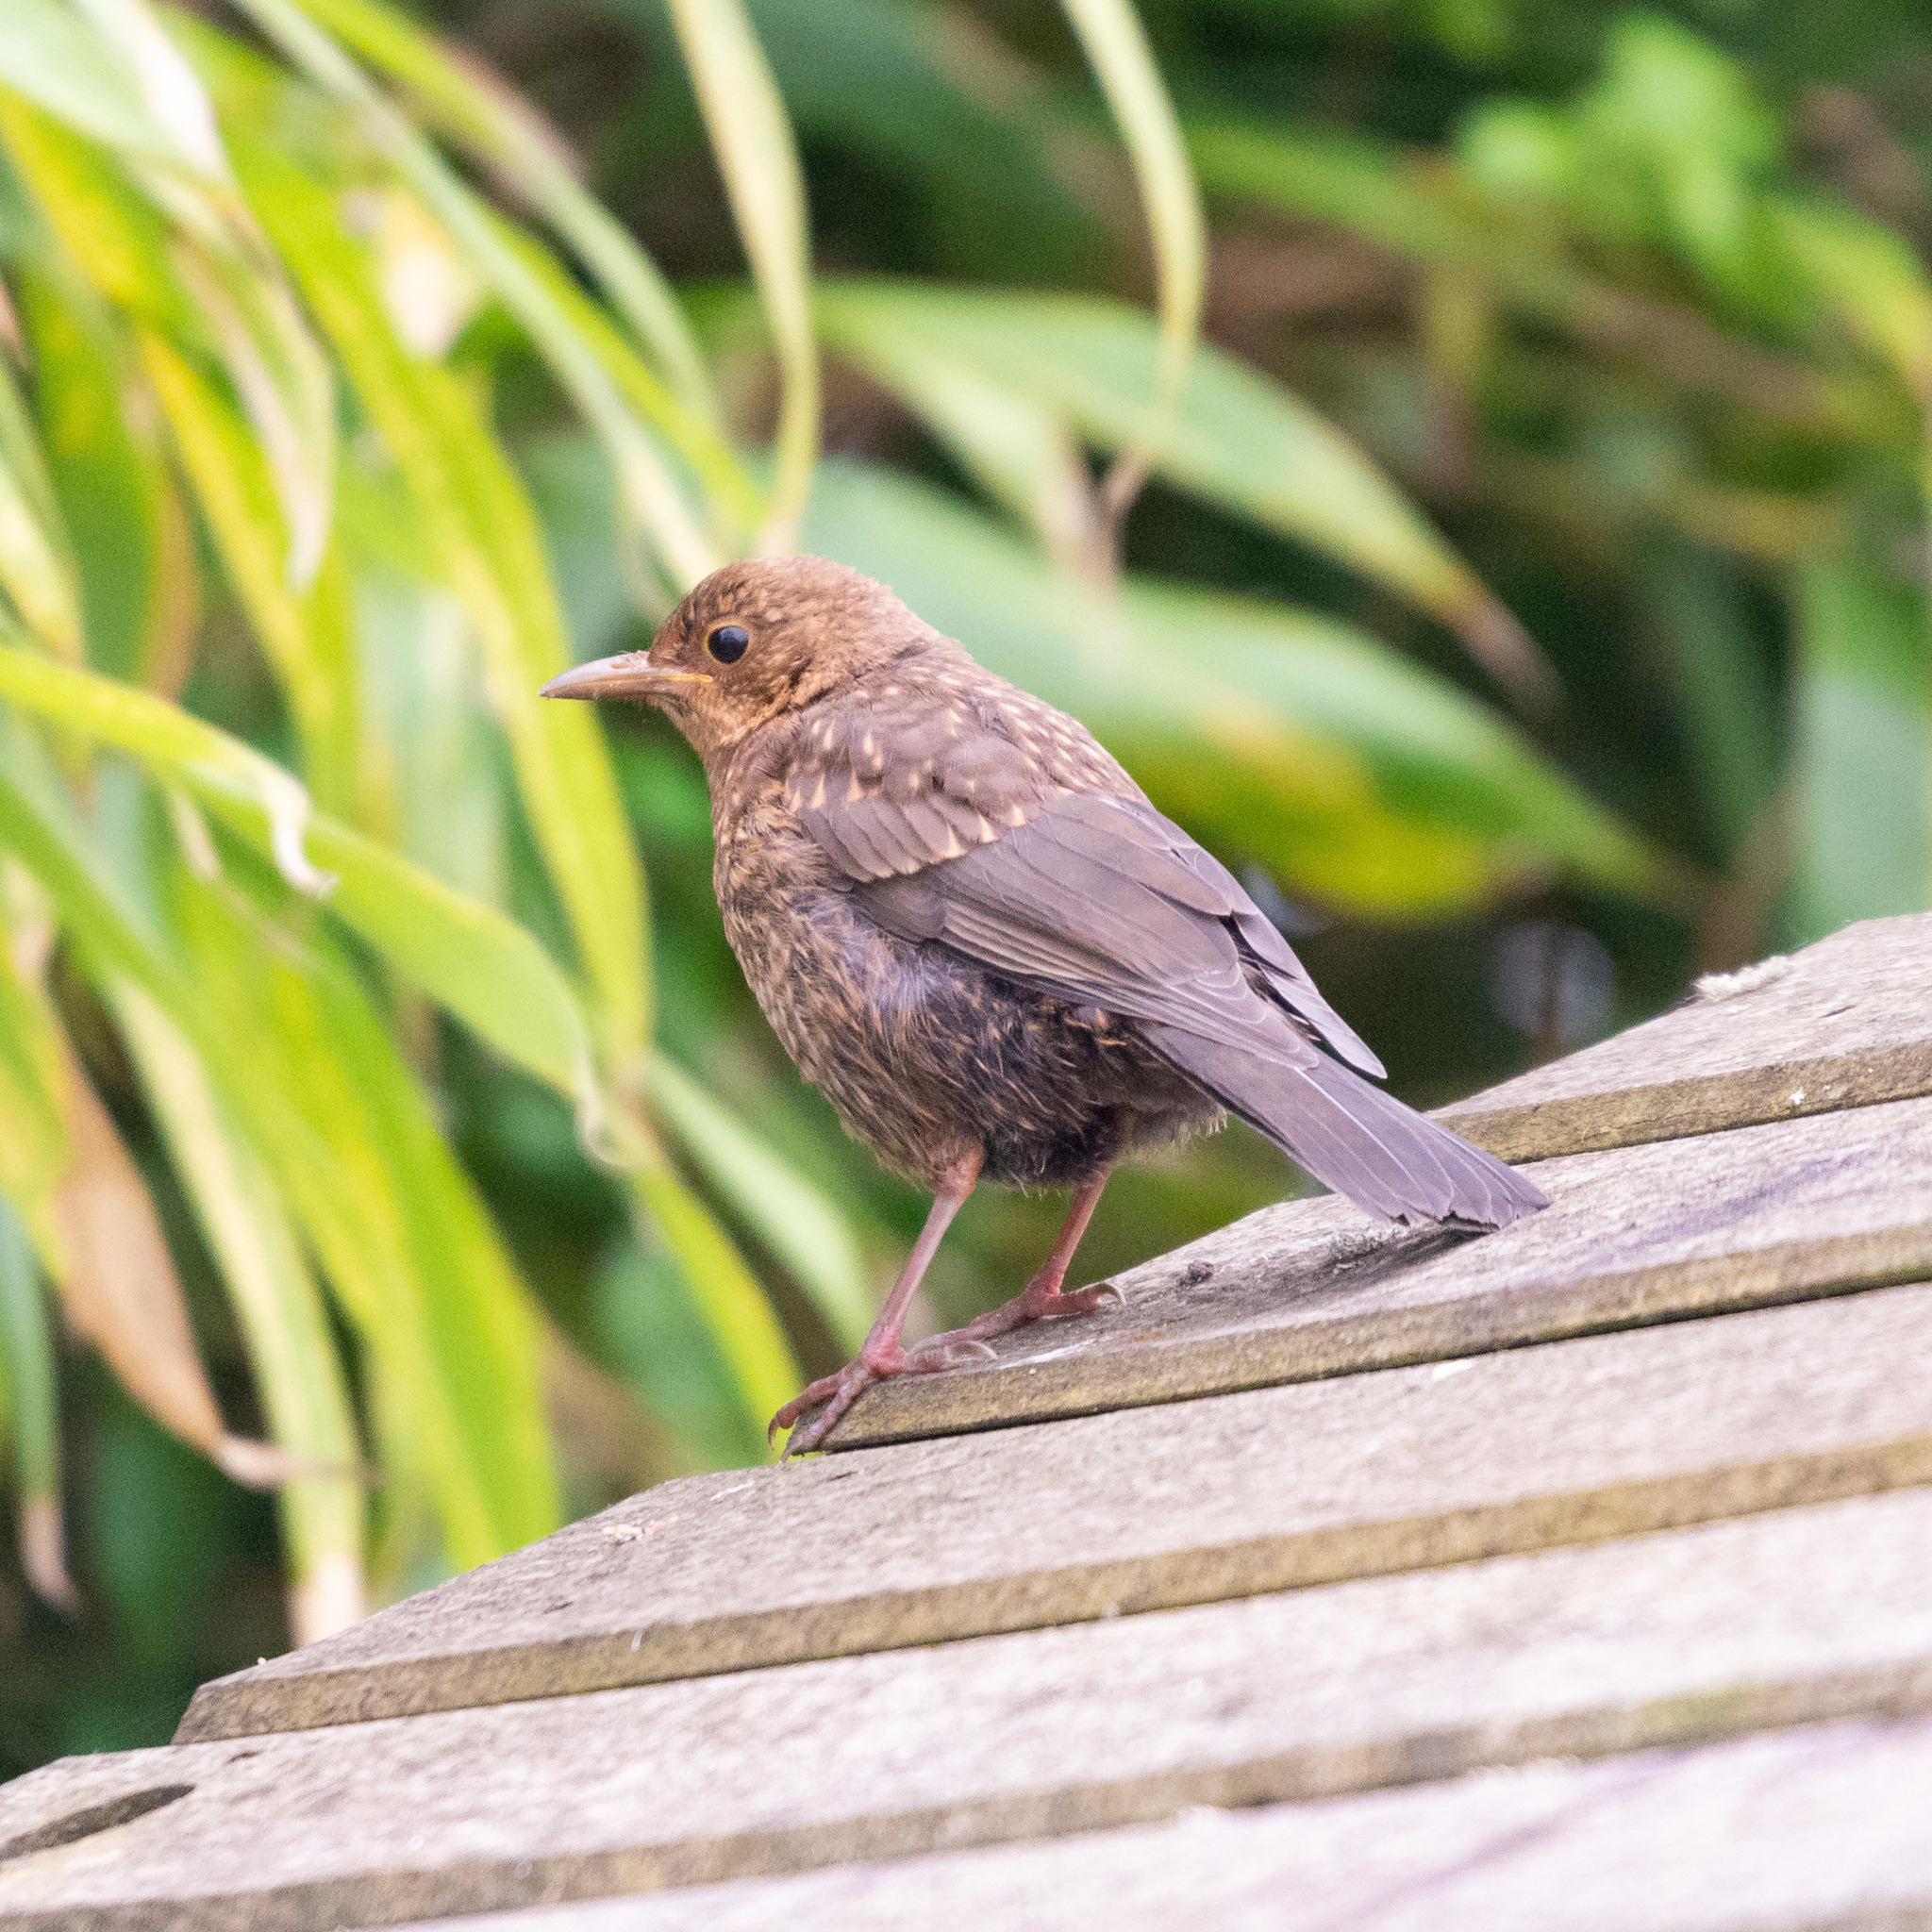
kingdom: Animalia
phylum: Chordata
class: Aves
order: Passeriformes
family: Turdidae
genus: Turdus
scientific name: Turdus merula
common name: Common blackbird
